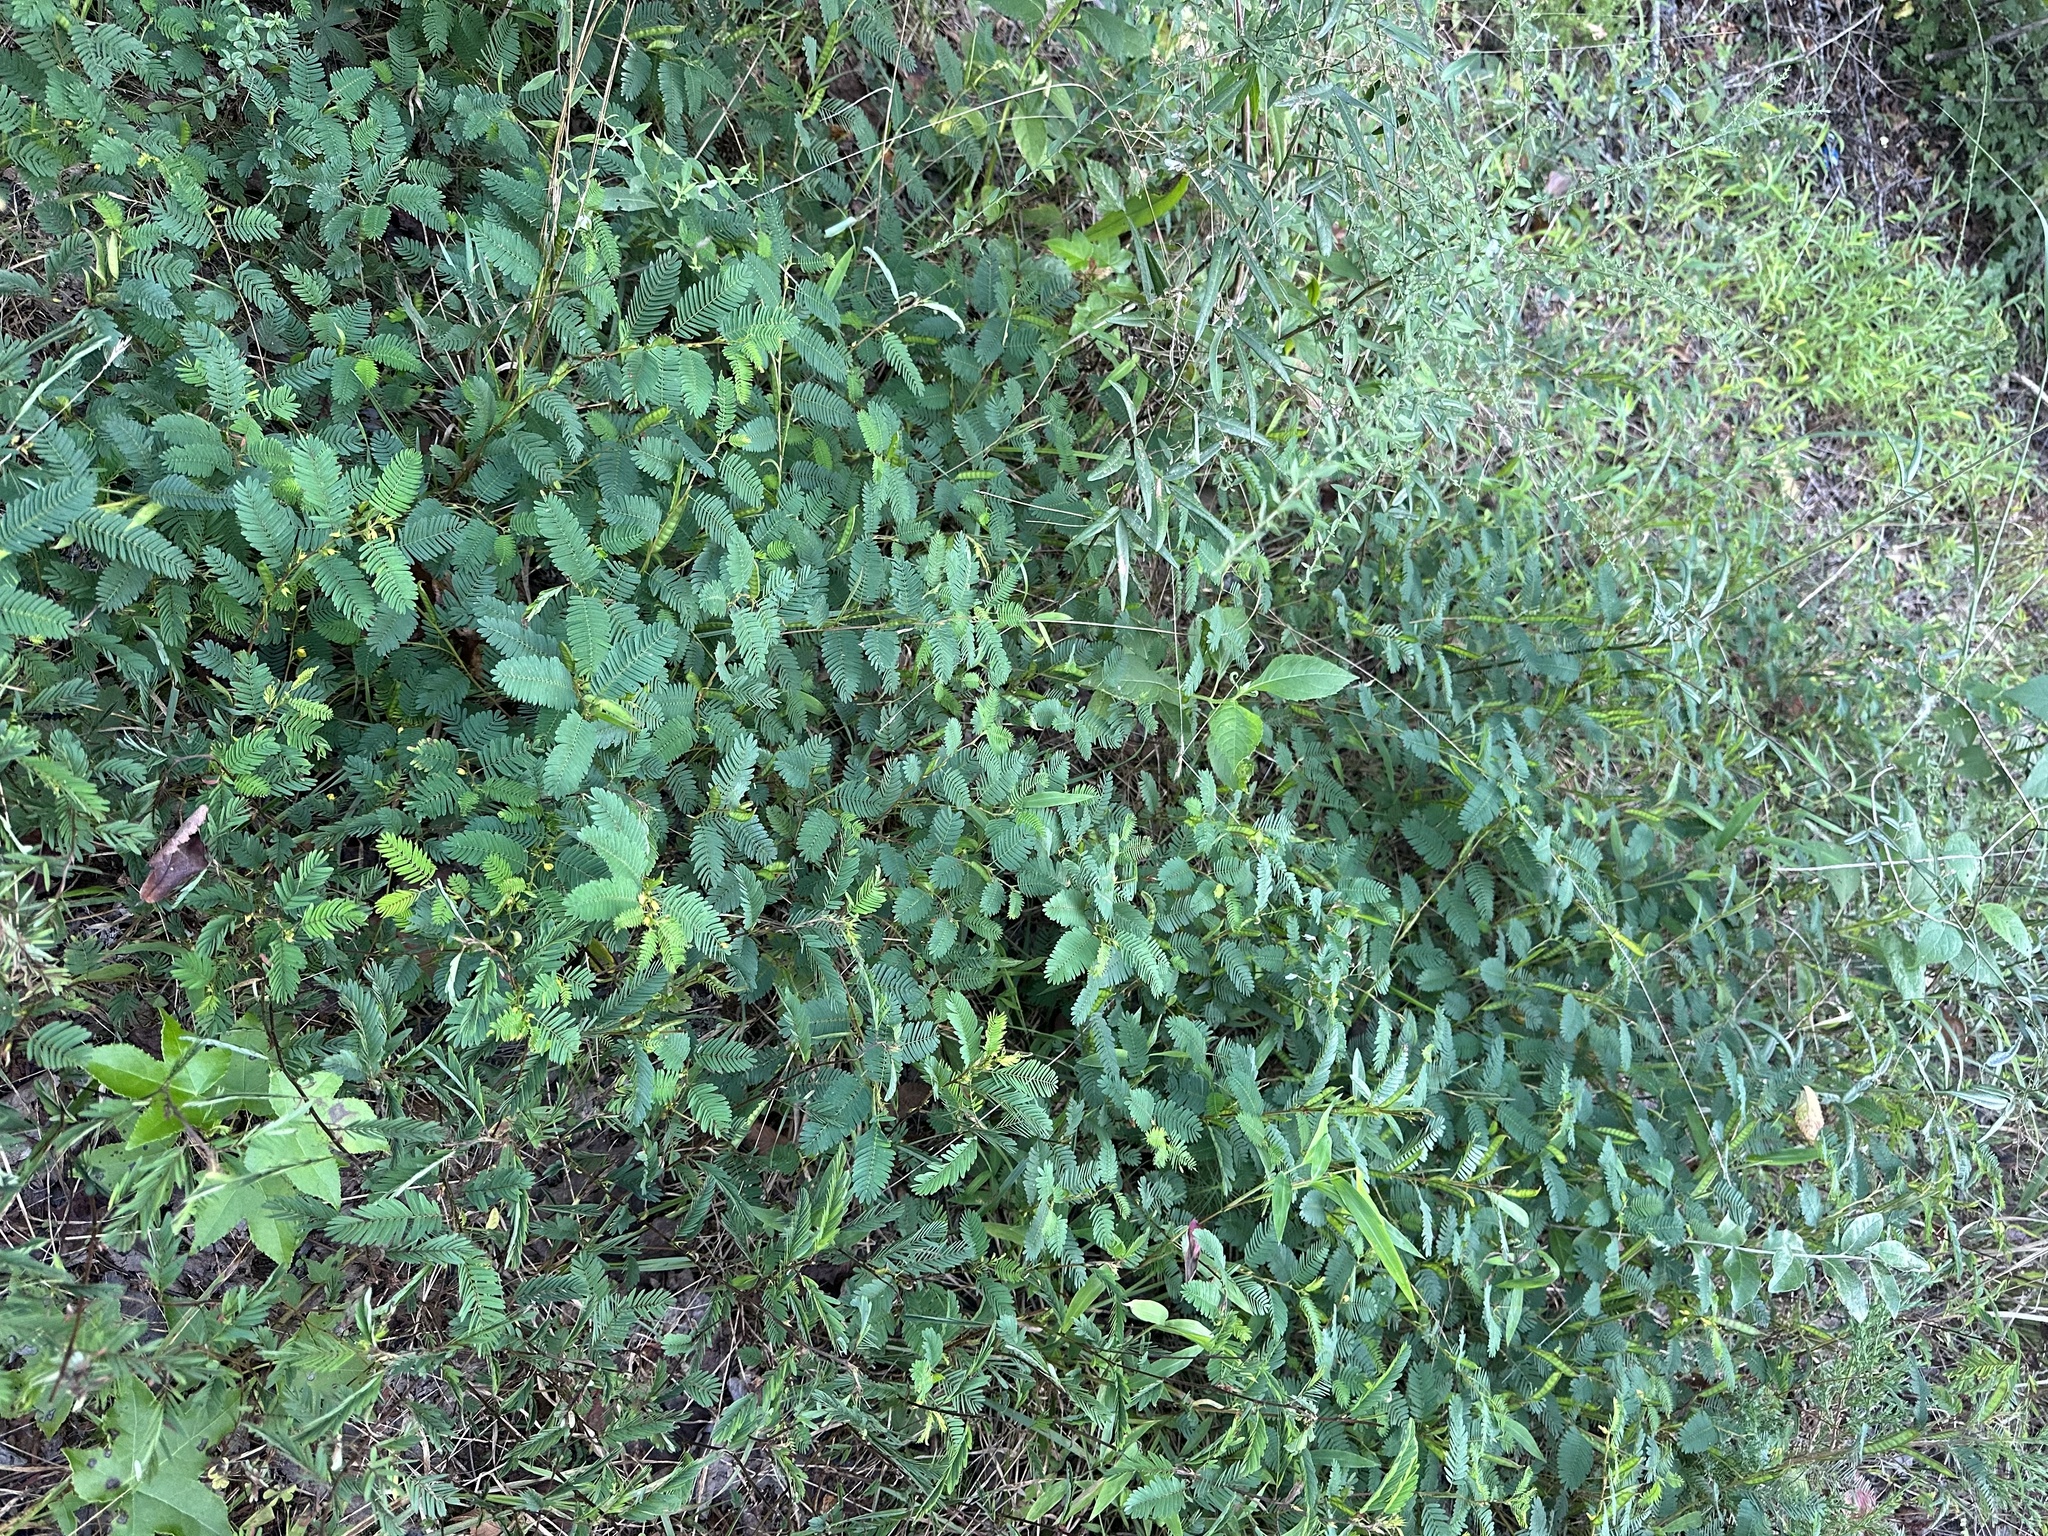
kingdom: Plantae
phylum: Tracheophyta
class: Magnoliopsida
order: Fabales
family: Fabaceae
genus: Chamaecrista
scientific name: Chamaecrista nictitans
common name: Sensitive cassia
